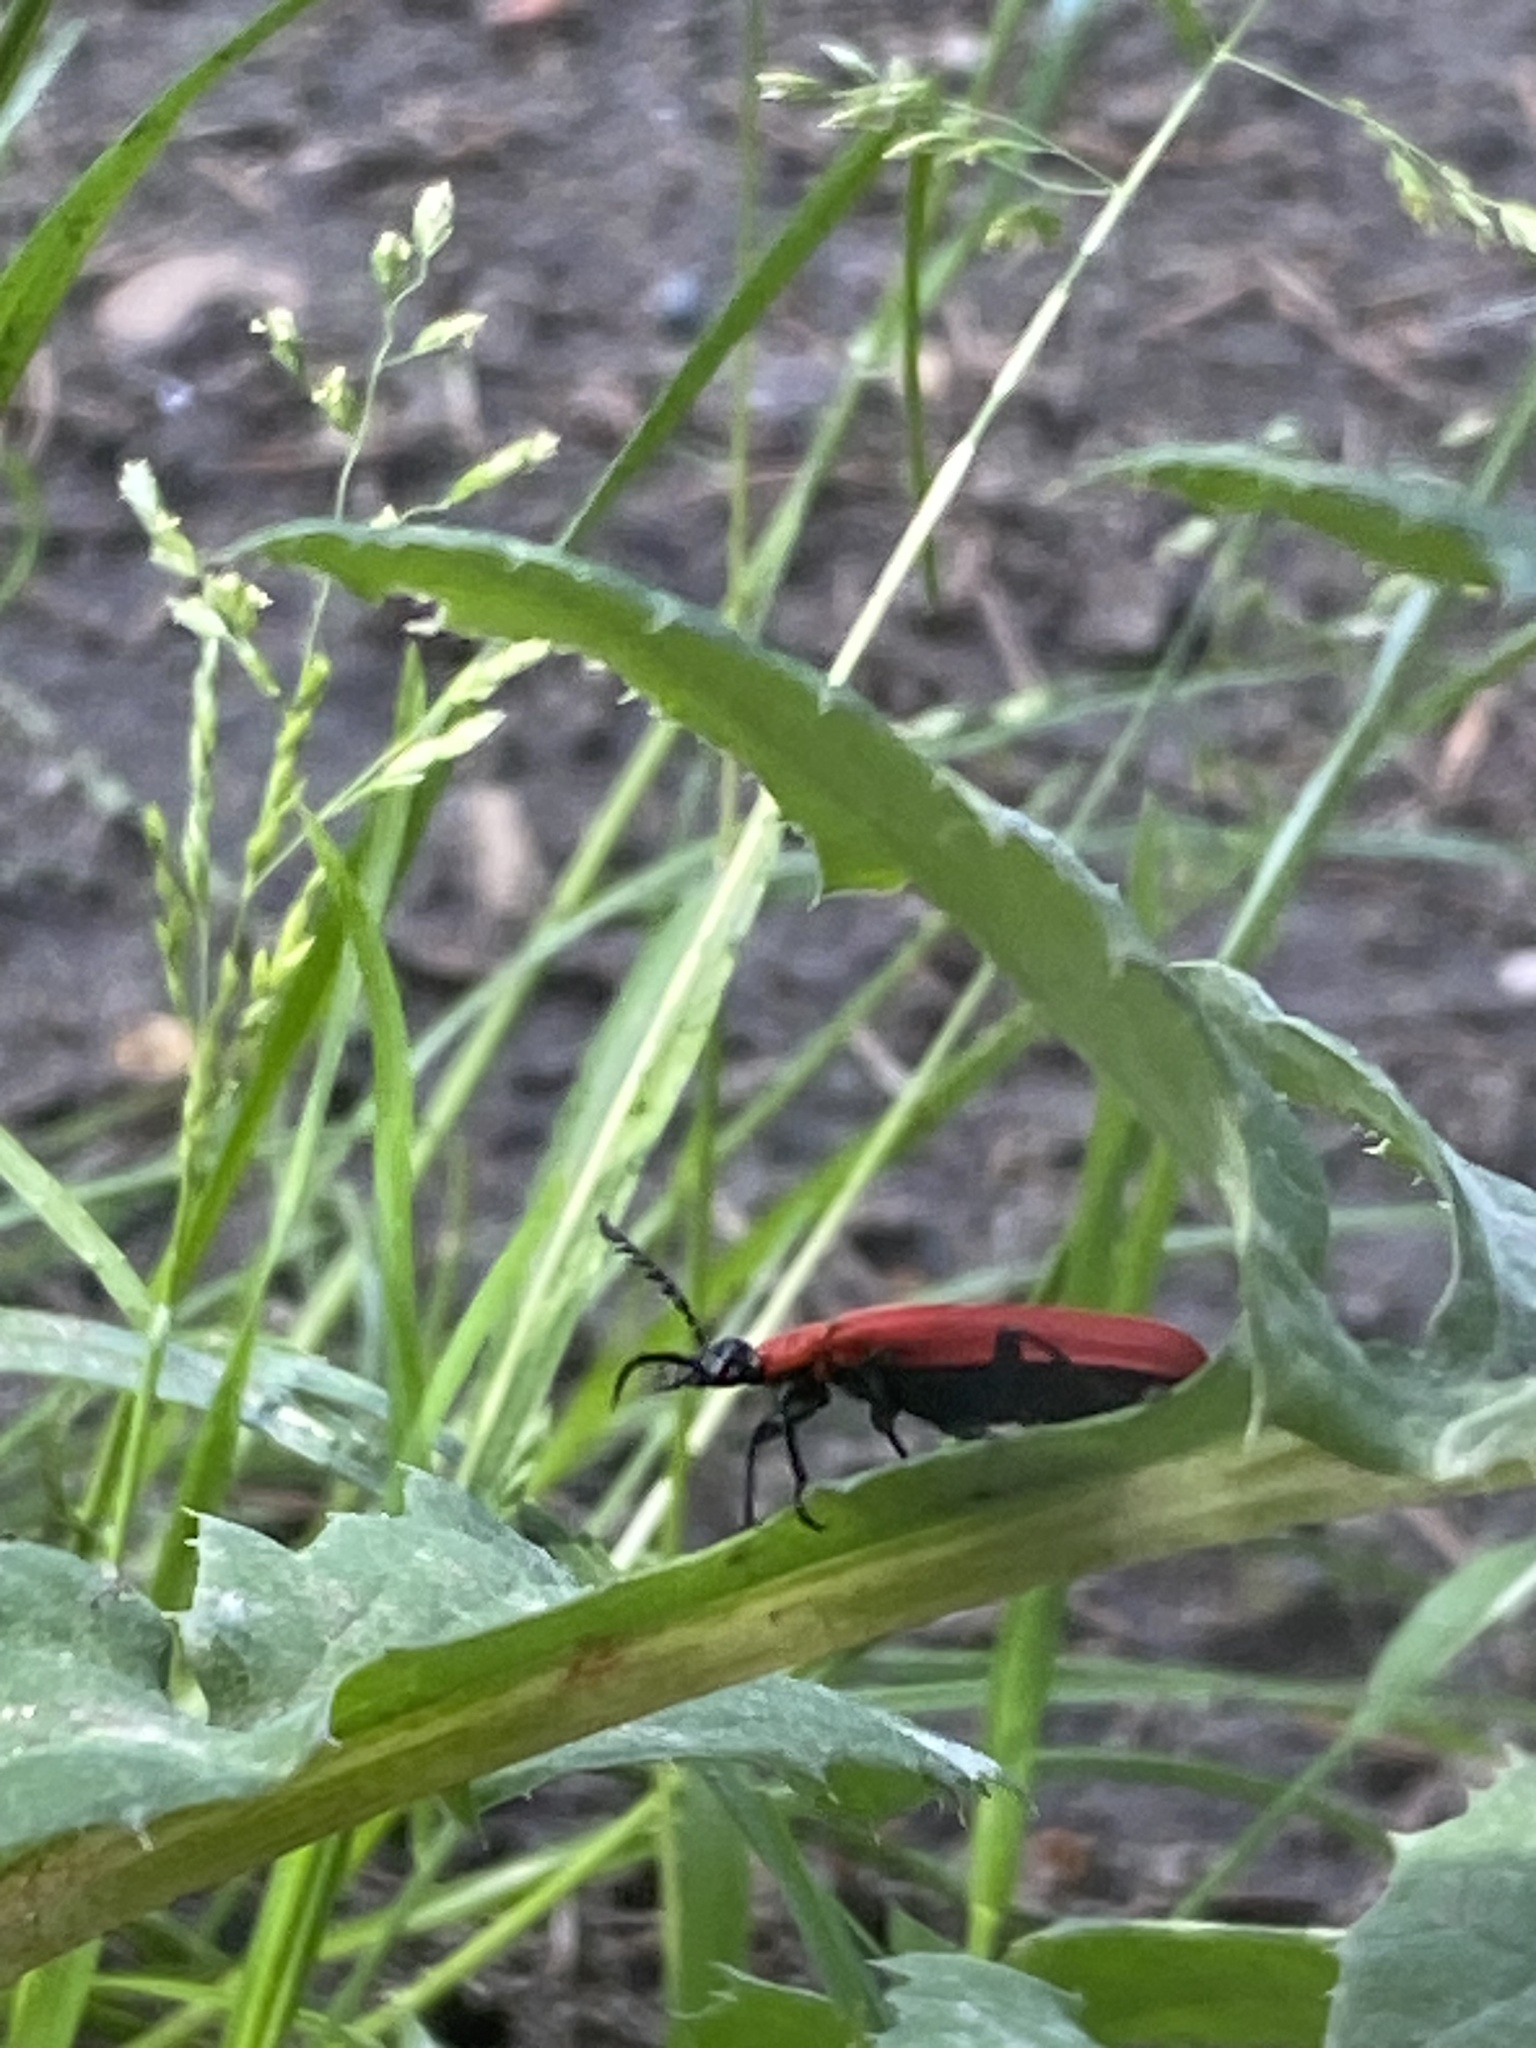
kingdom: Animalia
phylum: Arthropoda
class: Insecta
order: Coleoptera
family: Pyrochroidae
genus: Pyrochroa
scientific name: Pyrochroa coccinea
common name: Black-headed cardinal beetle
